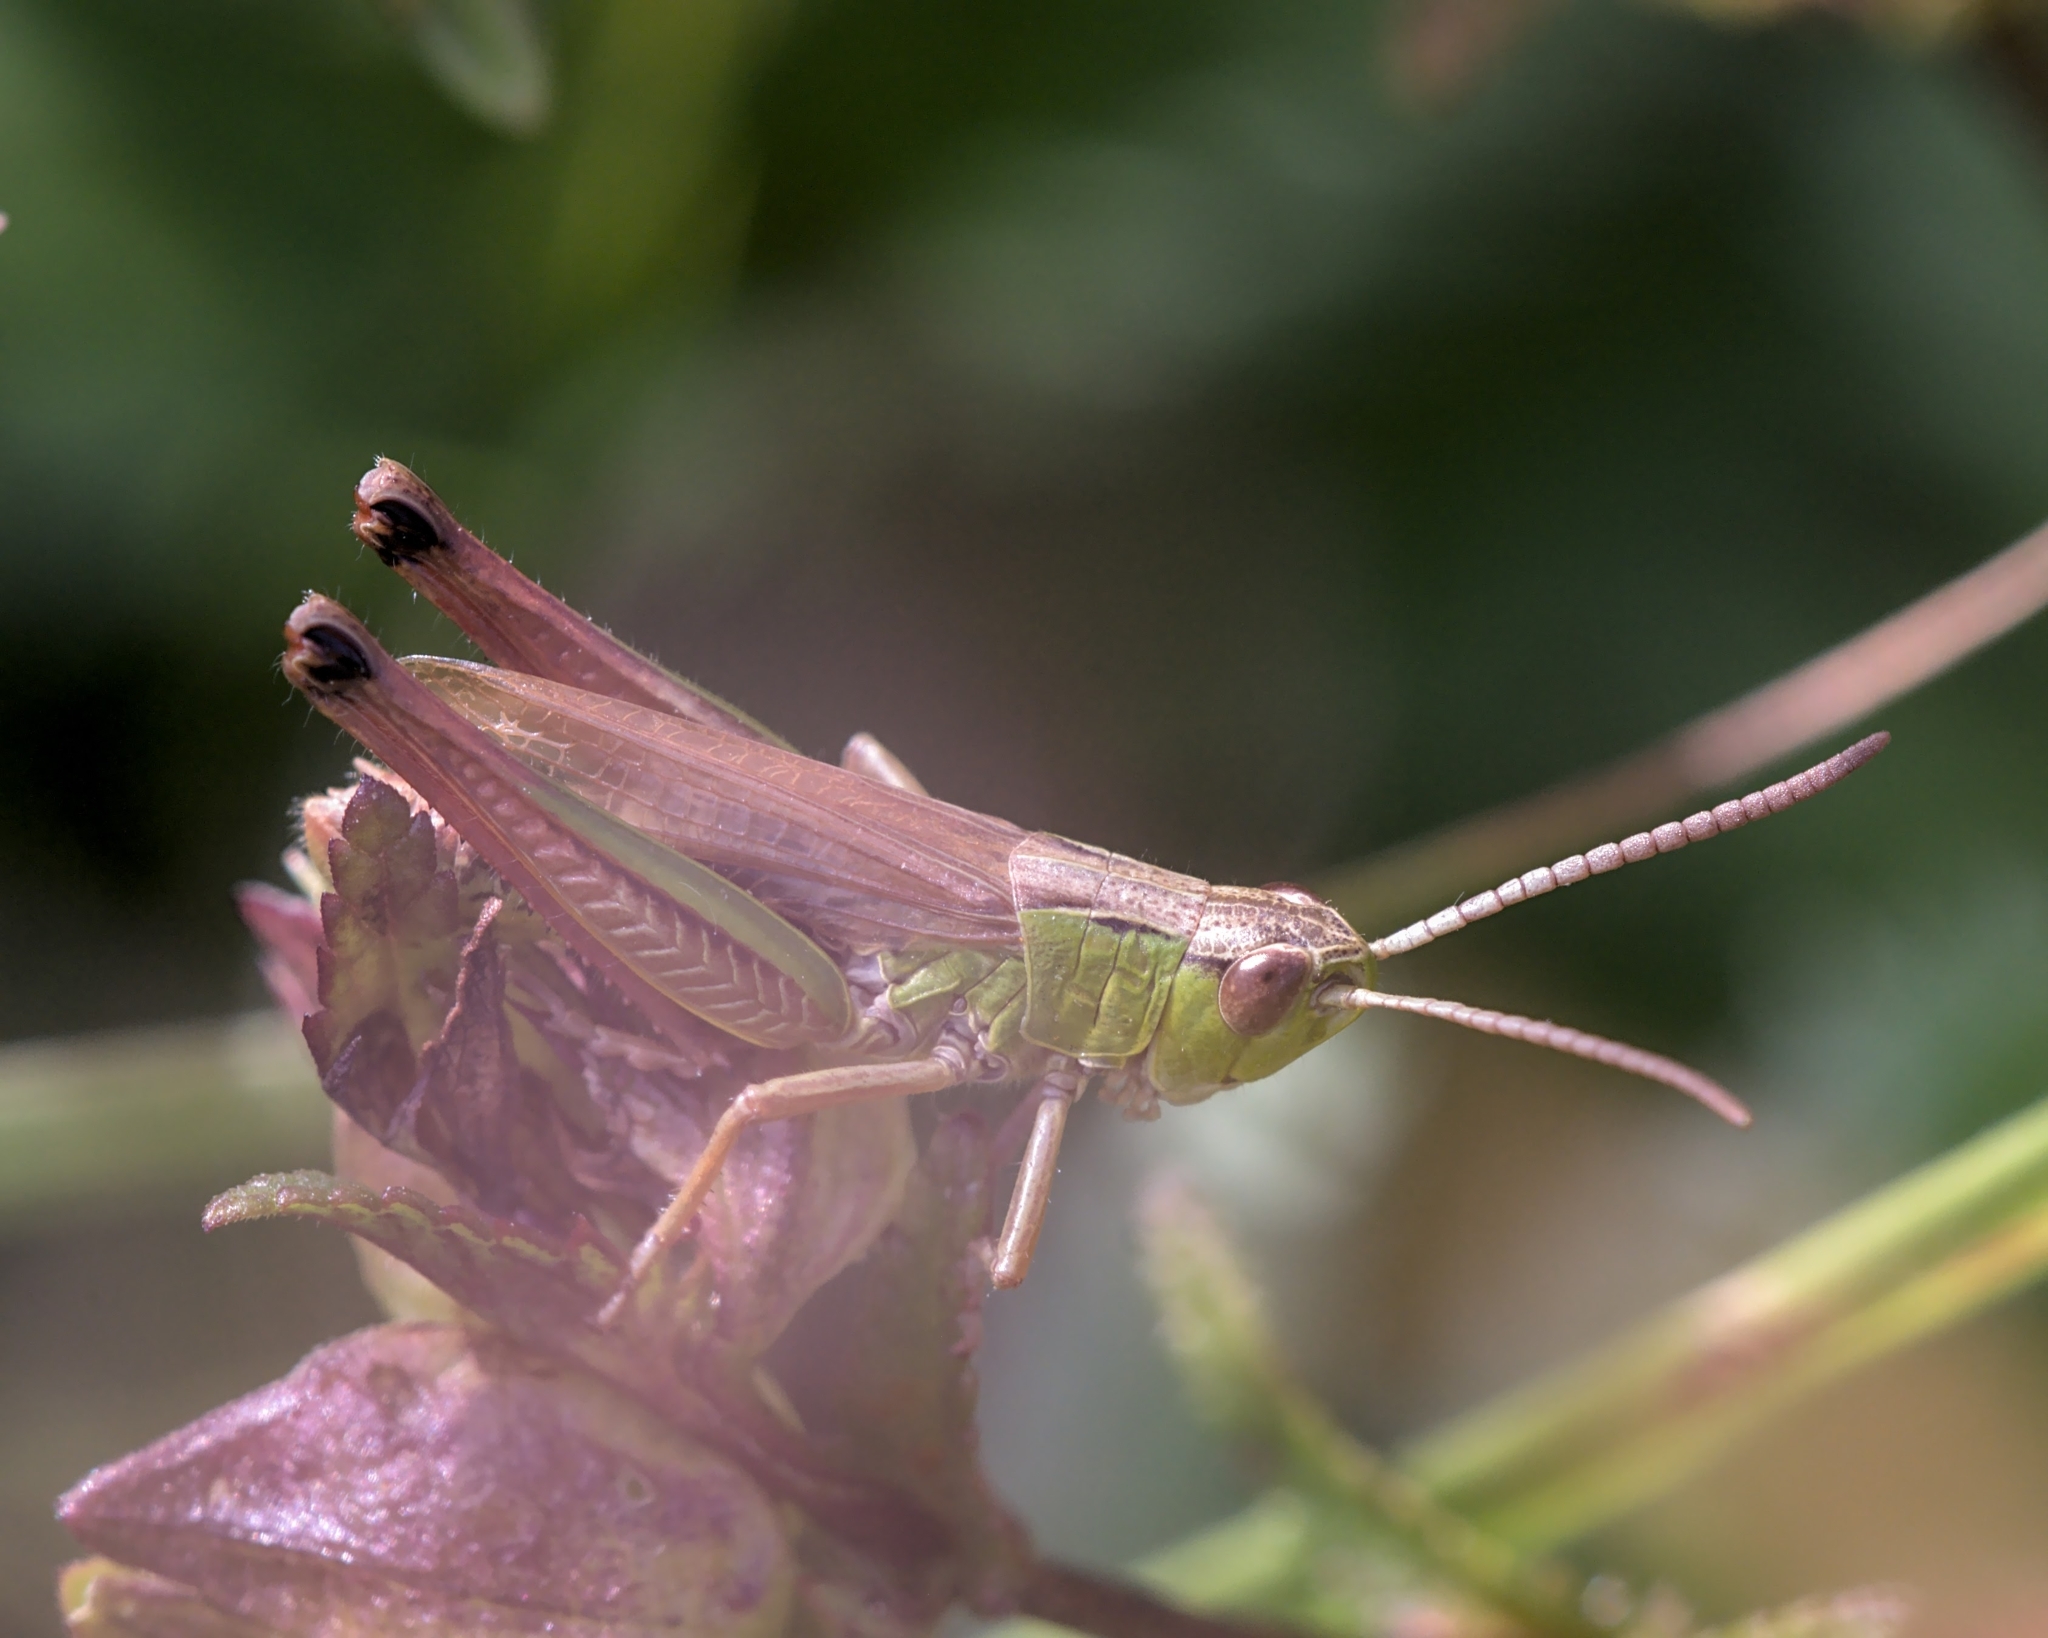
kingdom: Animalia
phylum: Arthropoda
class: Insecta
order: Orthoptera
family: Acrididae
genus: Pseudochorthippus
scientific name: Pseudochorthippus parallelus
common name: Meadow grasshopper
